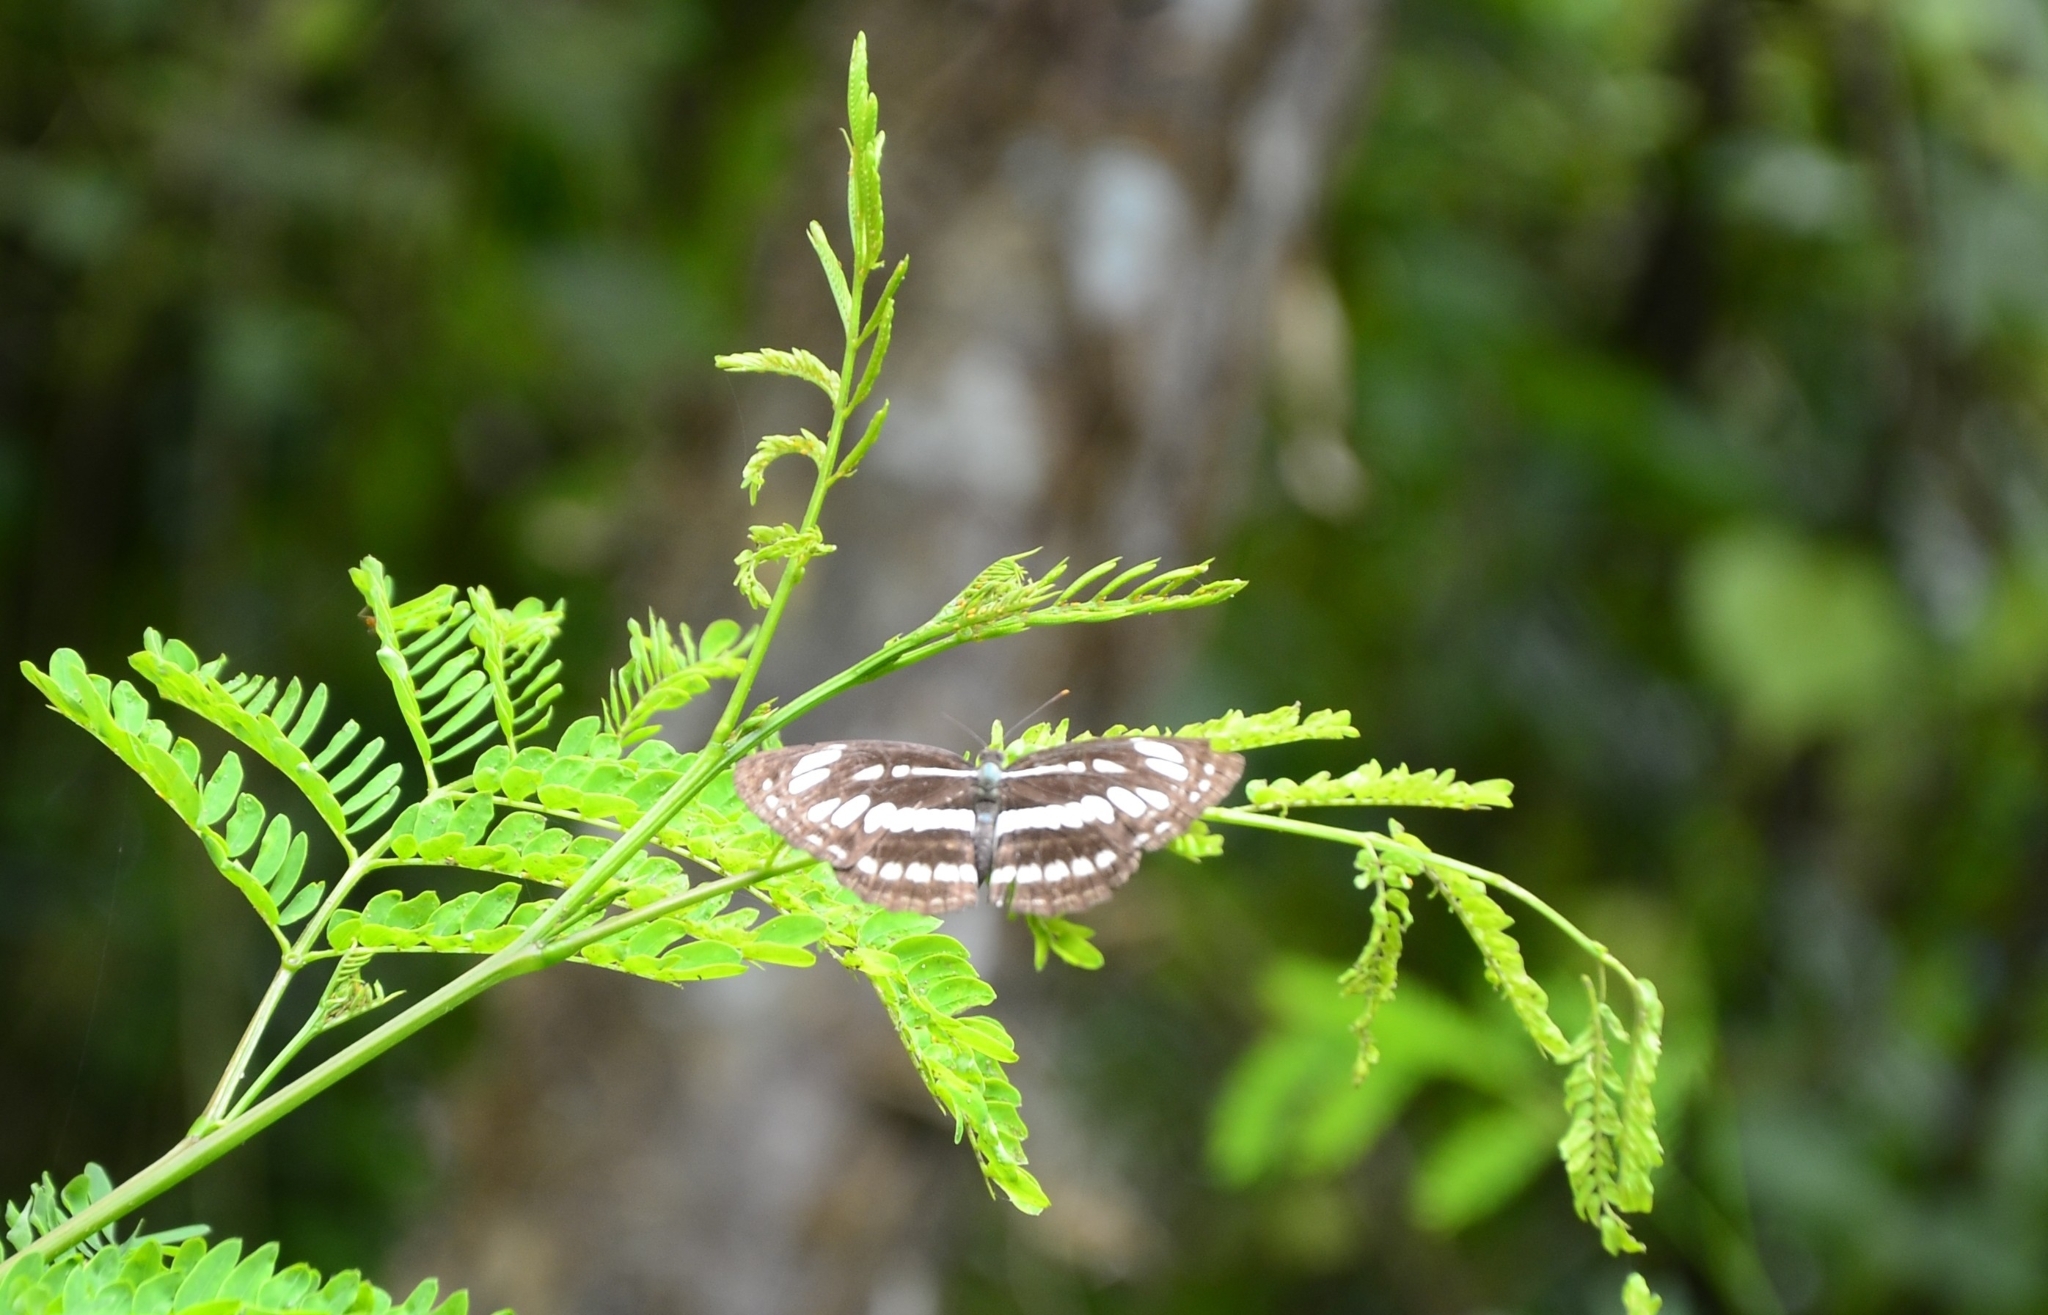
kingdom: Animalia
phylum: Arthropoda
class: Insecta
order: Lepidoptera
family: Nymphalidae
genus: Neptis
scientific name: Neptis hylas
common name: Common sailer
